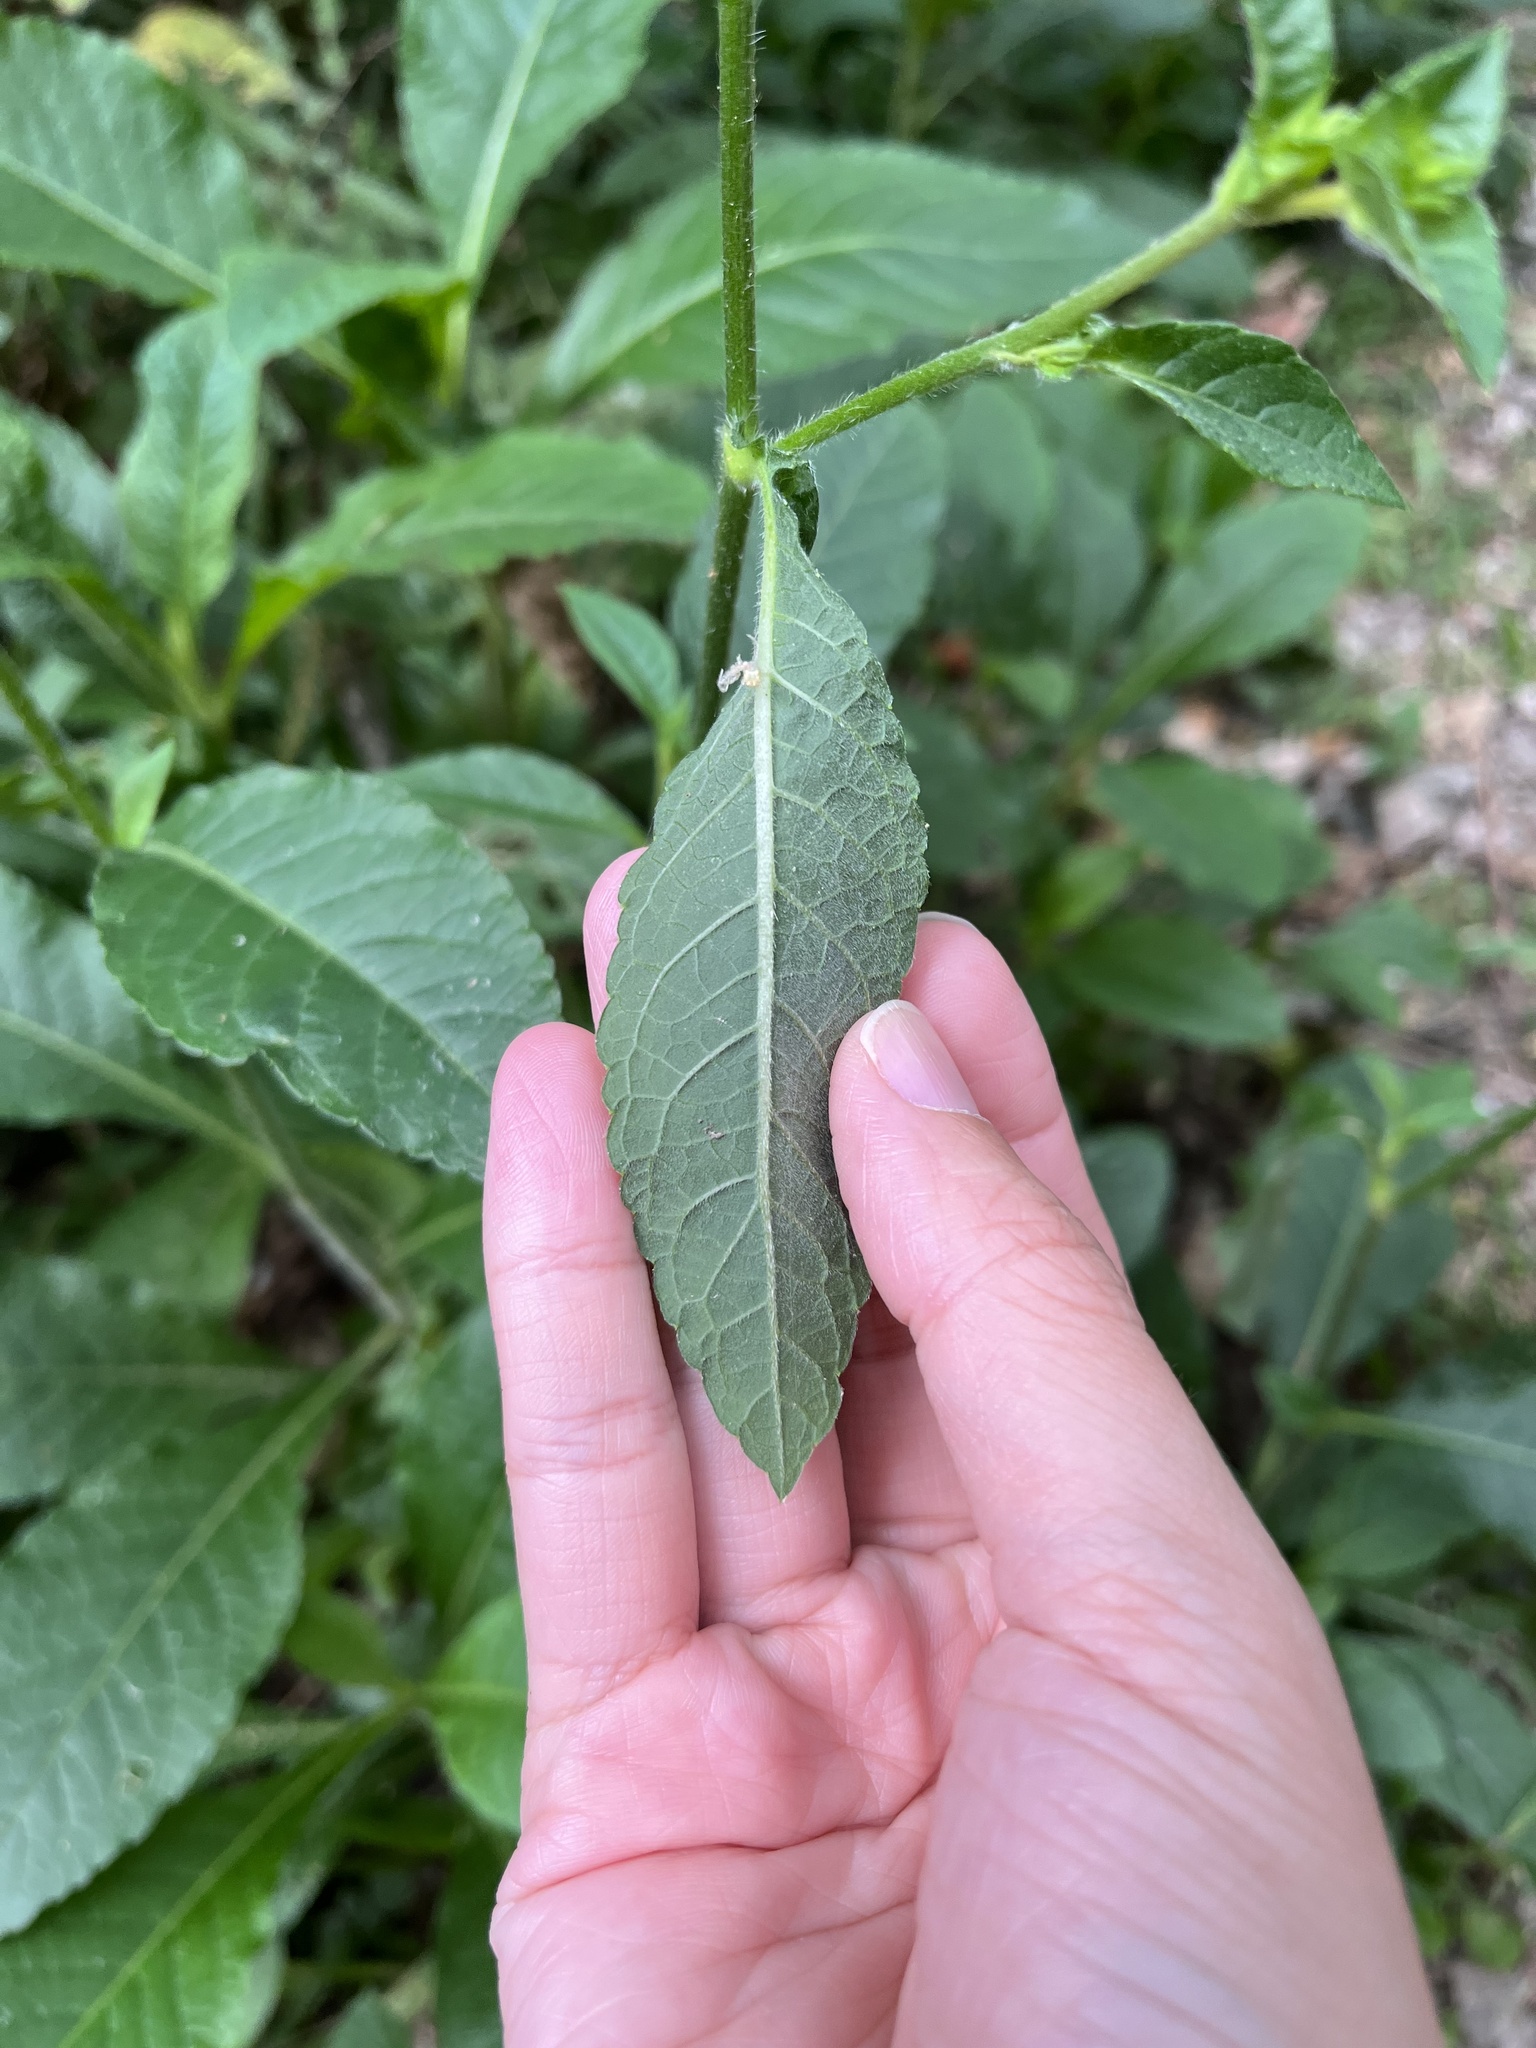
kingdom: Plantae
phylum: Tracheophyta
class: Magnoliopsida
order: Asterales
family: Asteraceae
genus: Elephantopus
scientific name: Elephantopus mollis
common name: Soft elephantsfoot
